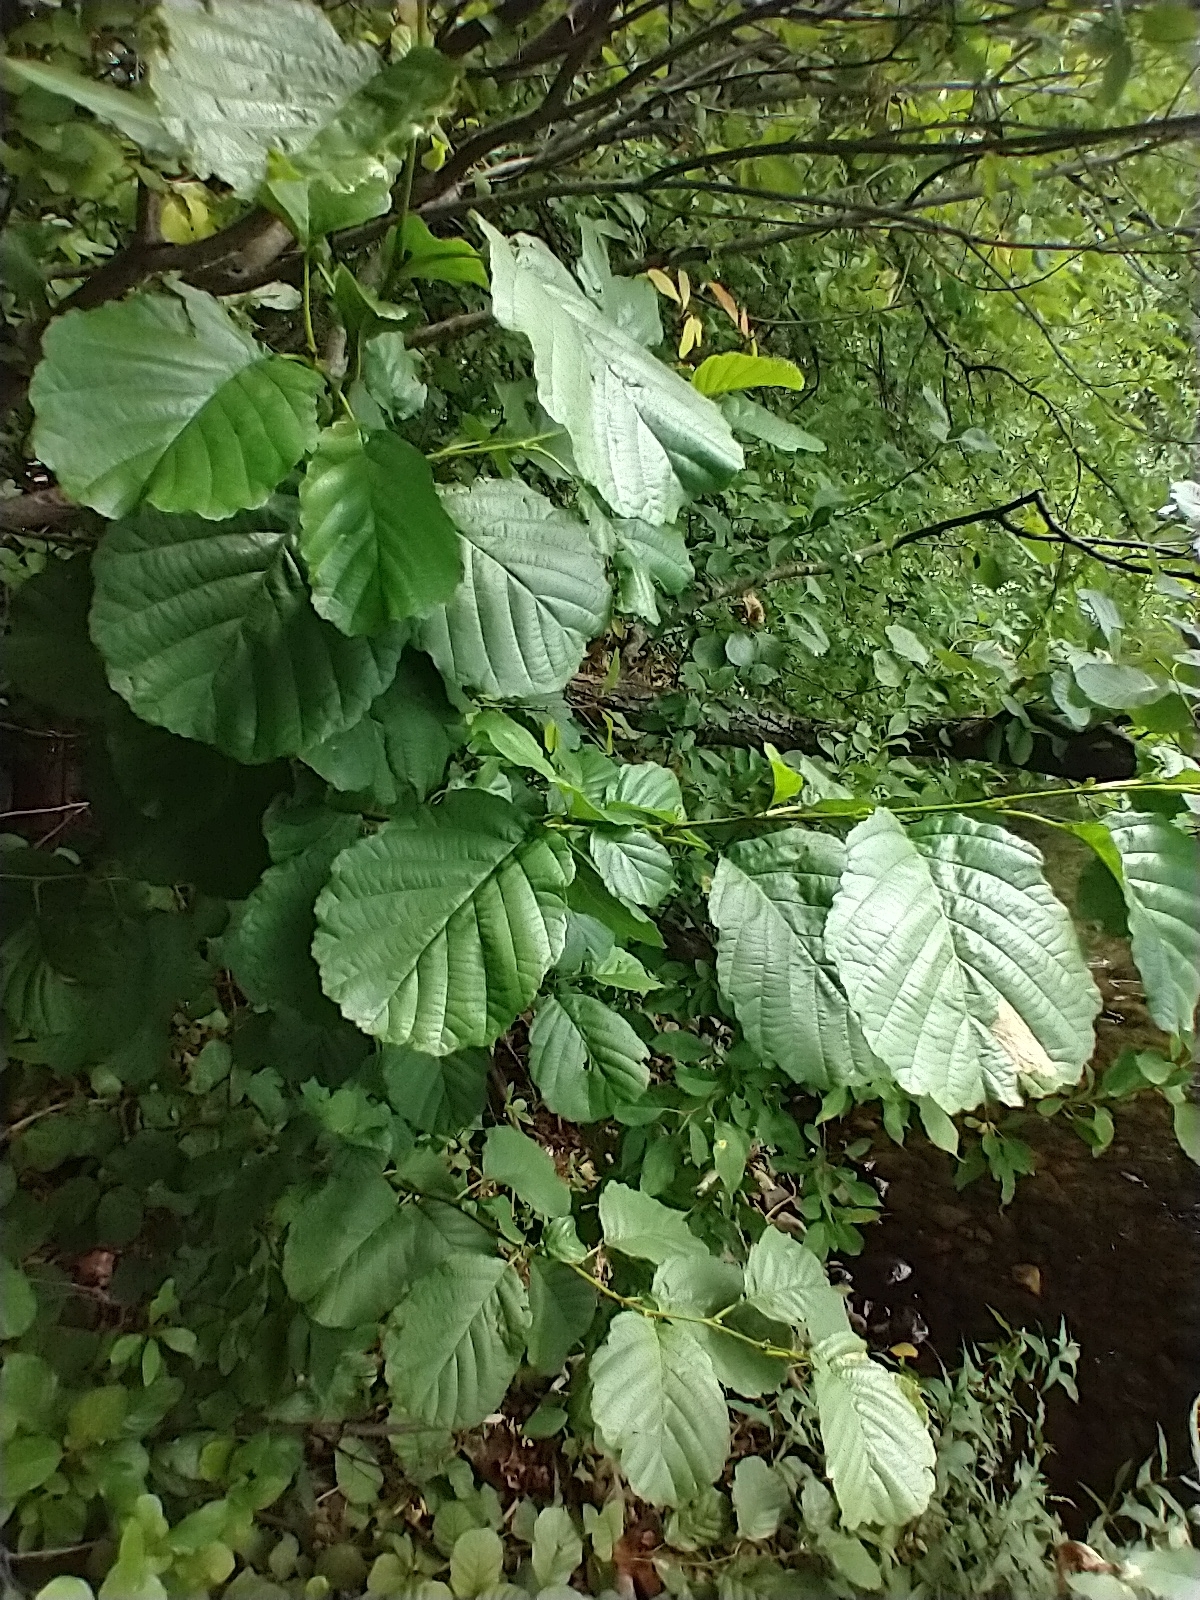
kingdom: Plantae
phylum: Tracheophyta
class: Magnoliopsida
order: Fagales
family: Betulaceae
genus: Alnus
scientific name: Alnus glutinosa
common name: Black alder
